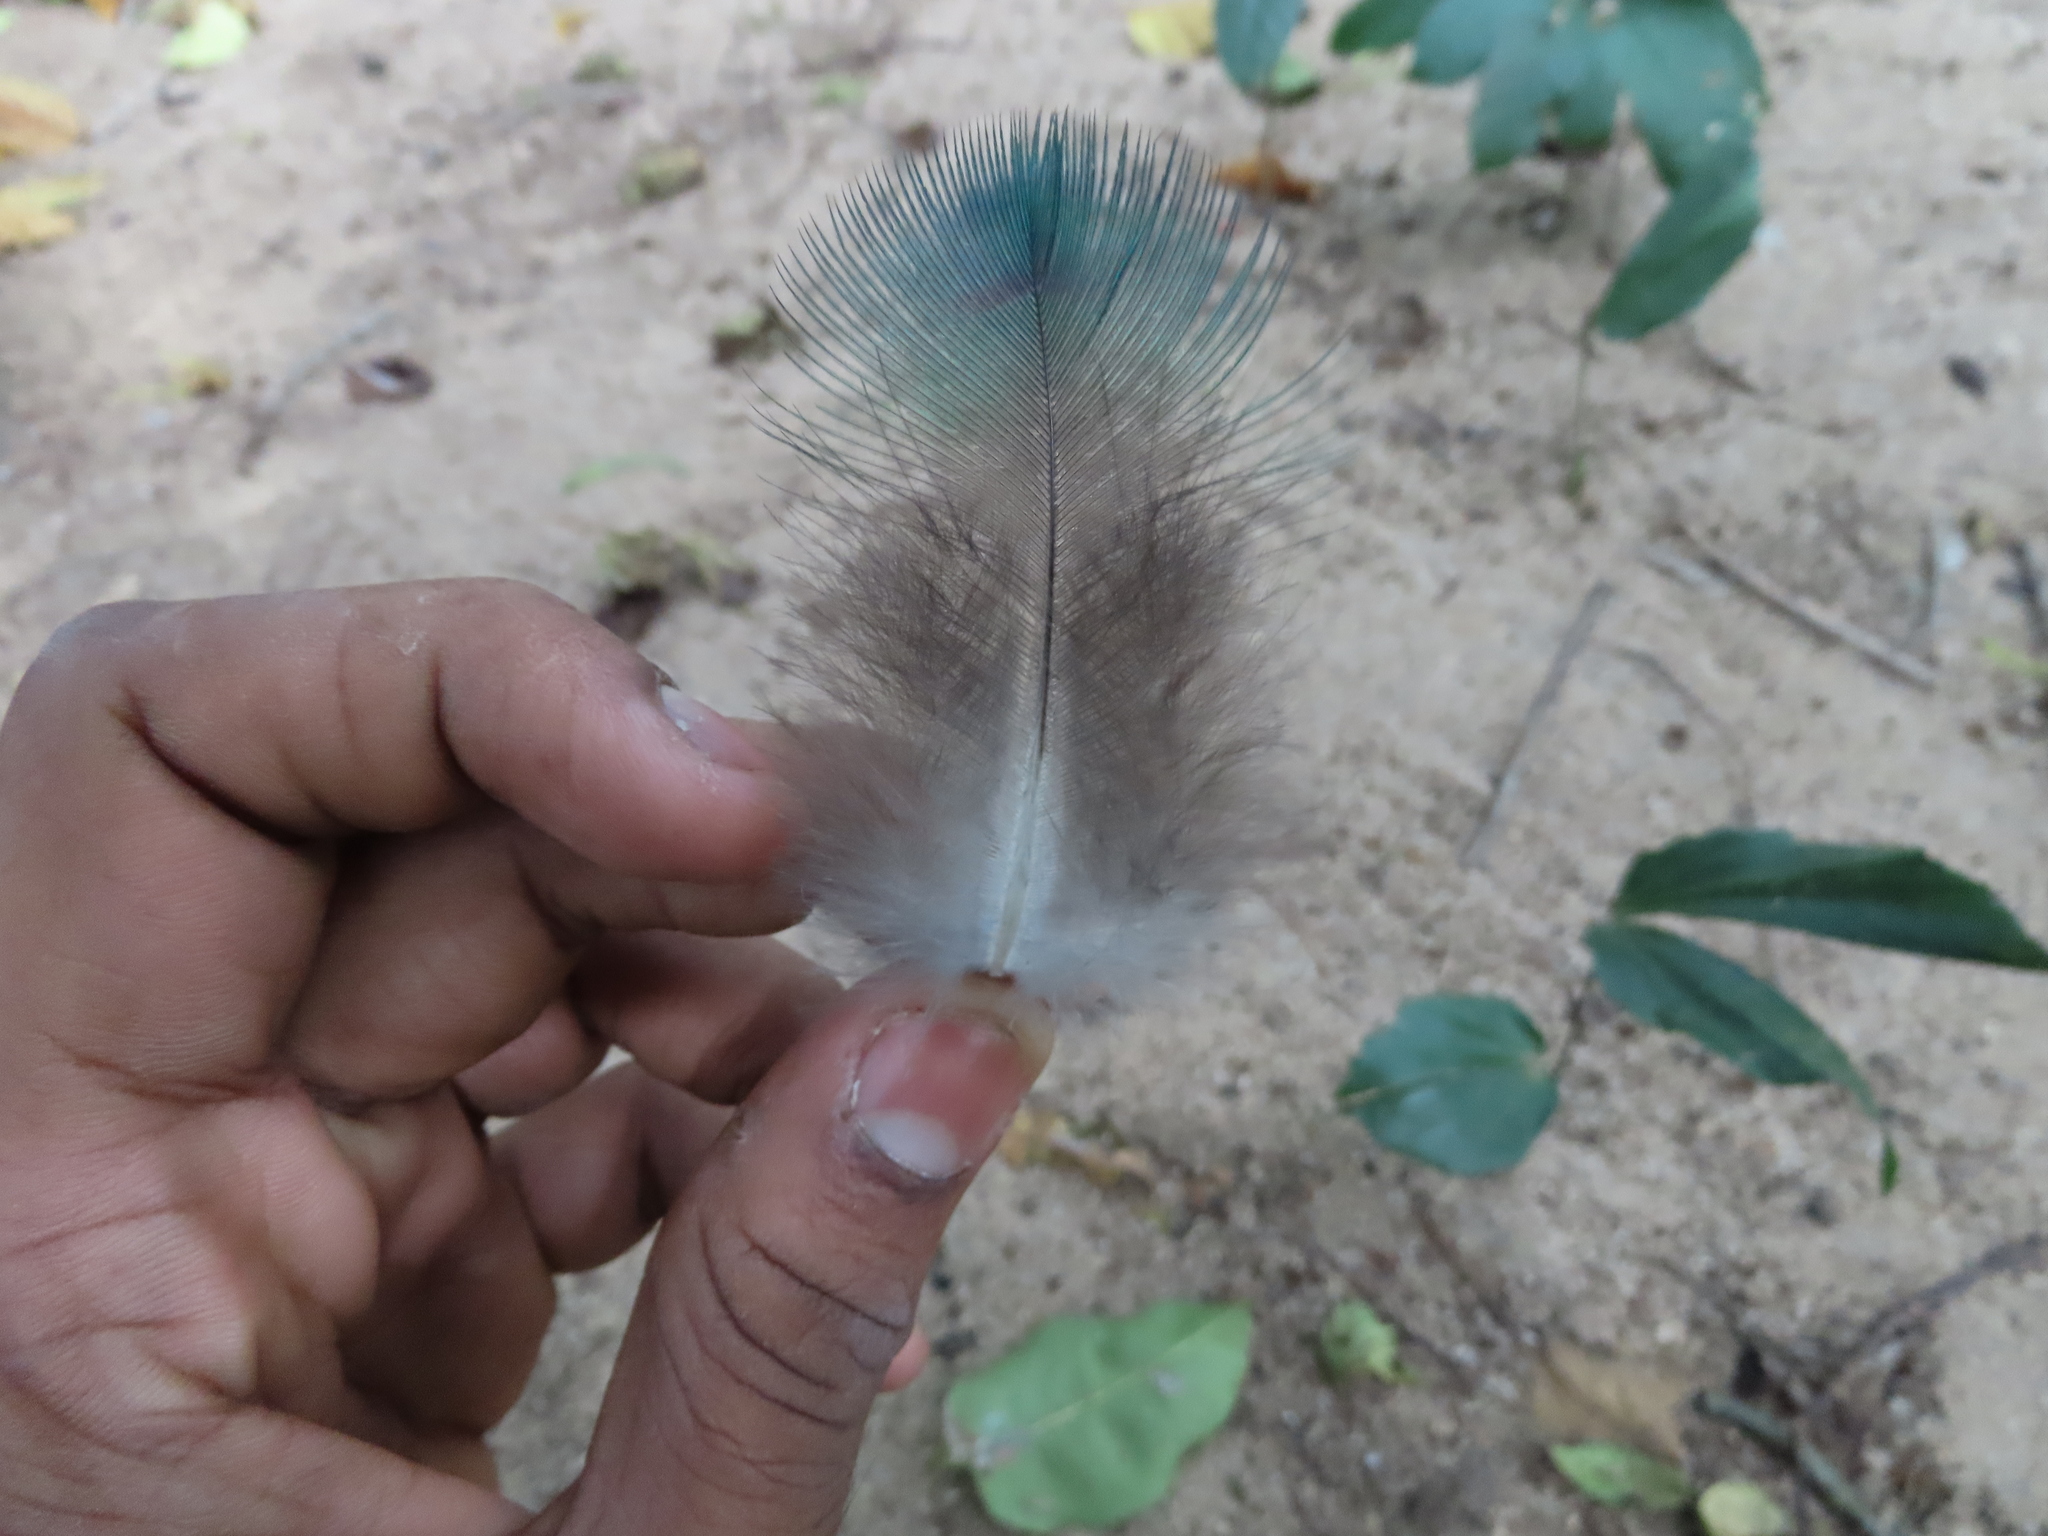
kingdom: Animalia
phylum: Chordata
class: Aves
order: Galliformes
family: Phasianidae
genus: Pavo
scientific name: Pavo cristatus
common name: Indian peafowl
